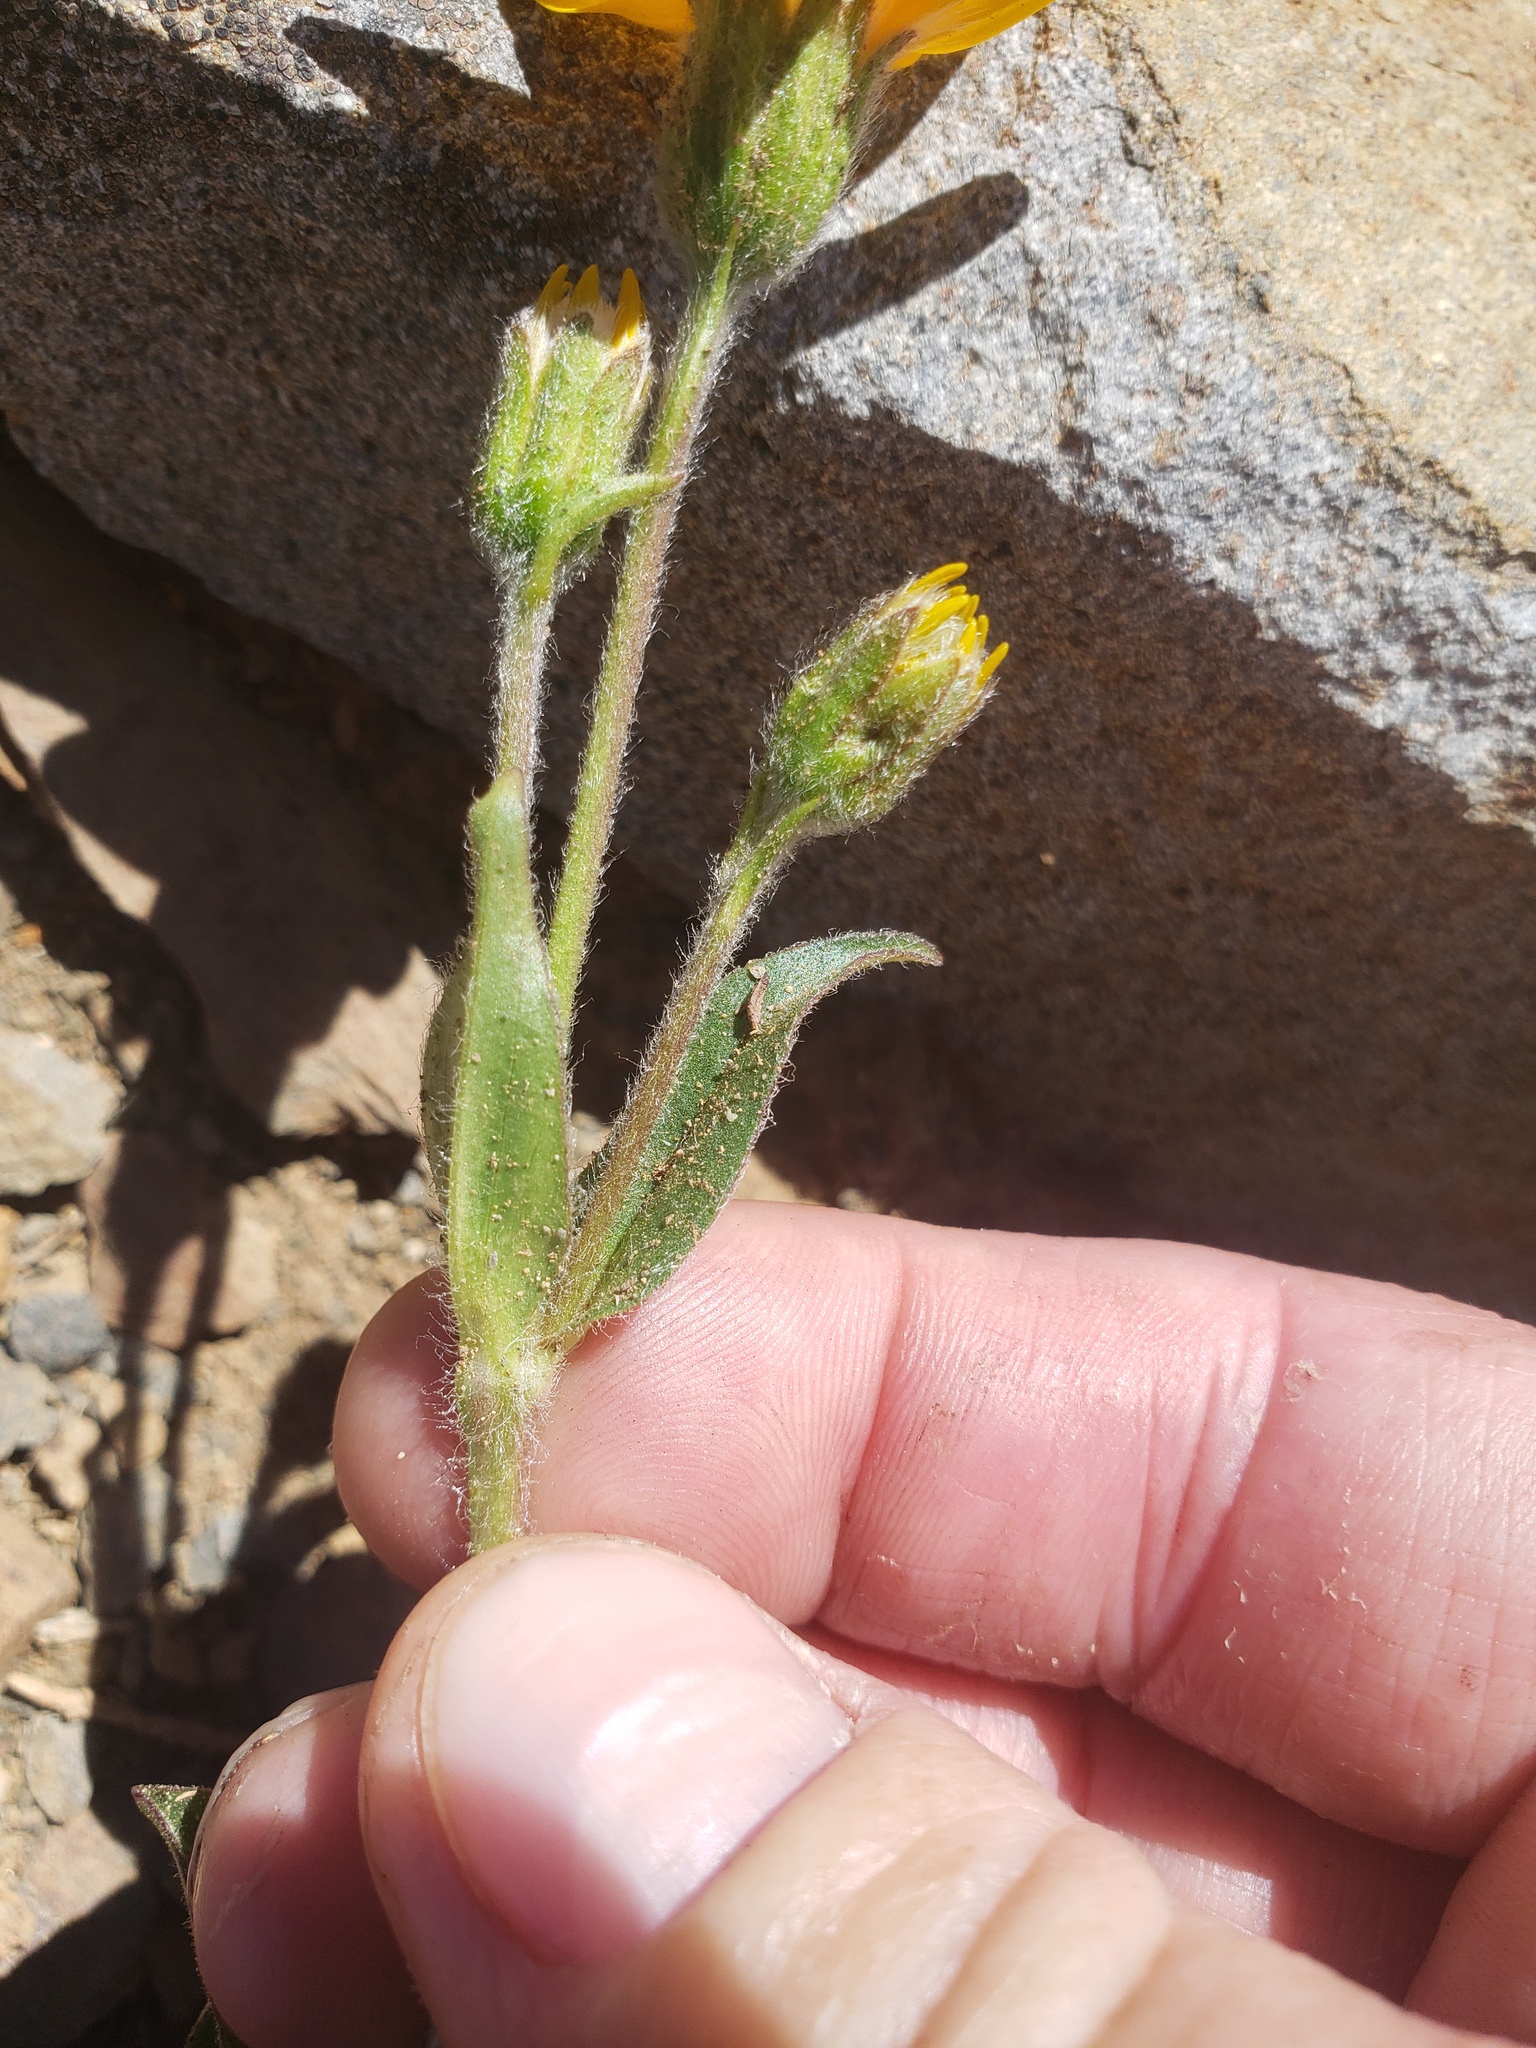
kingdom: Plantae
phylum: Tracheophyta
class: Magnoliopsida
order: Asterales
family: Asteraceae
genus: Arnica
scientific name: Arnica rydbergii
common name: Rydberg's arnica
